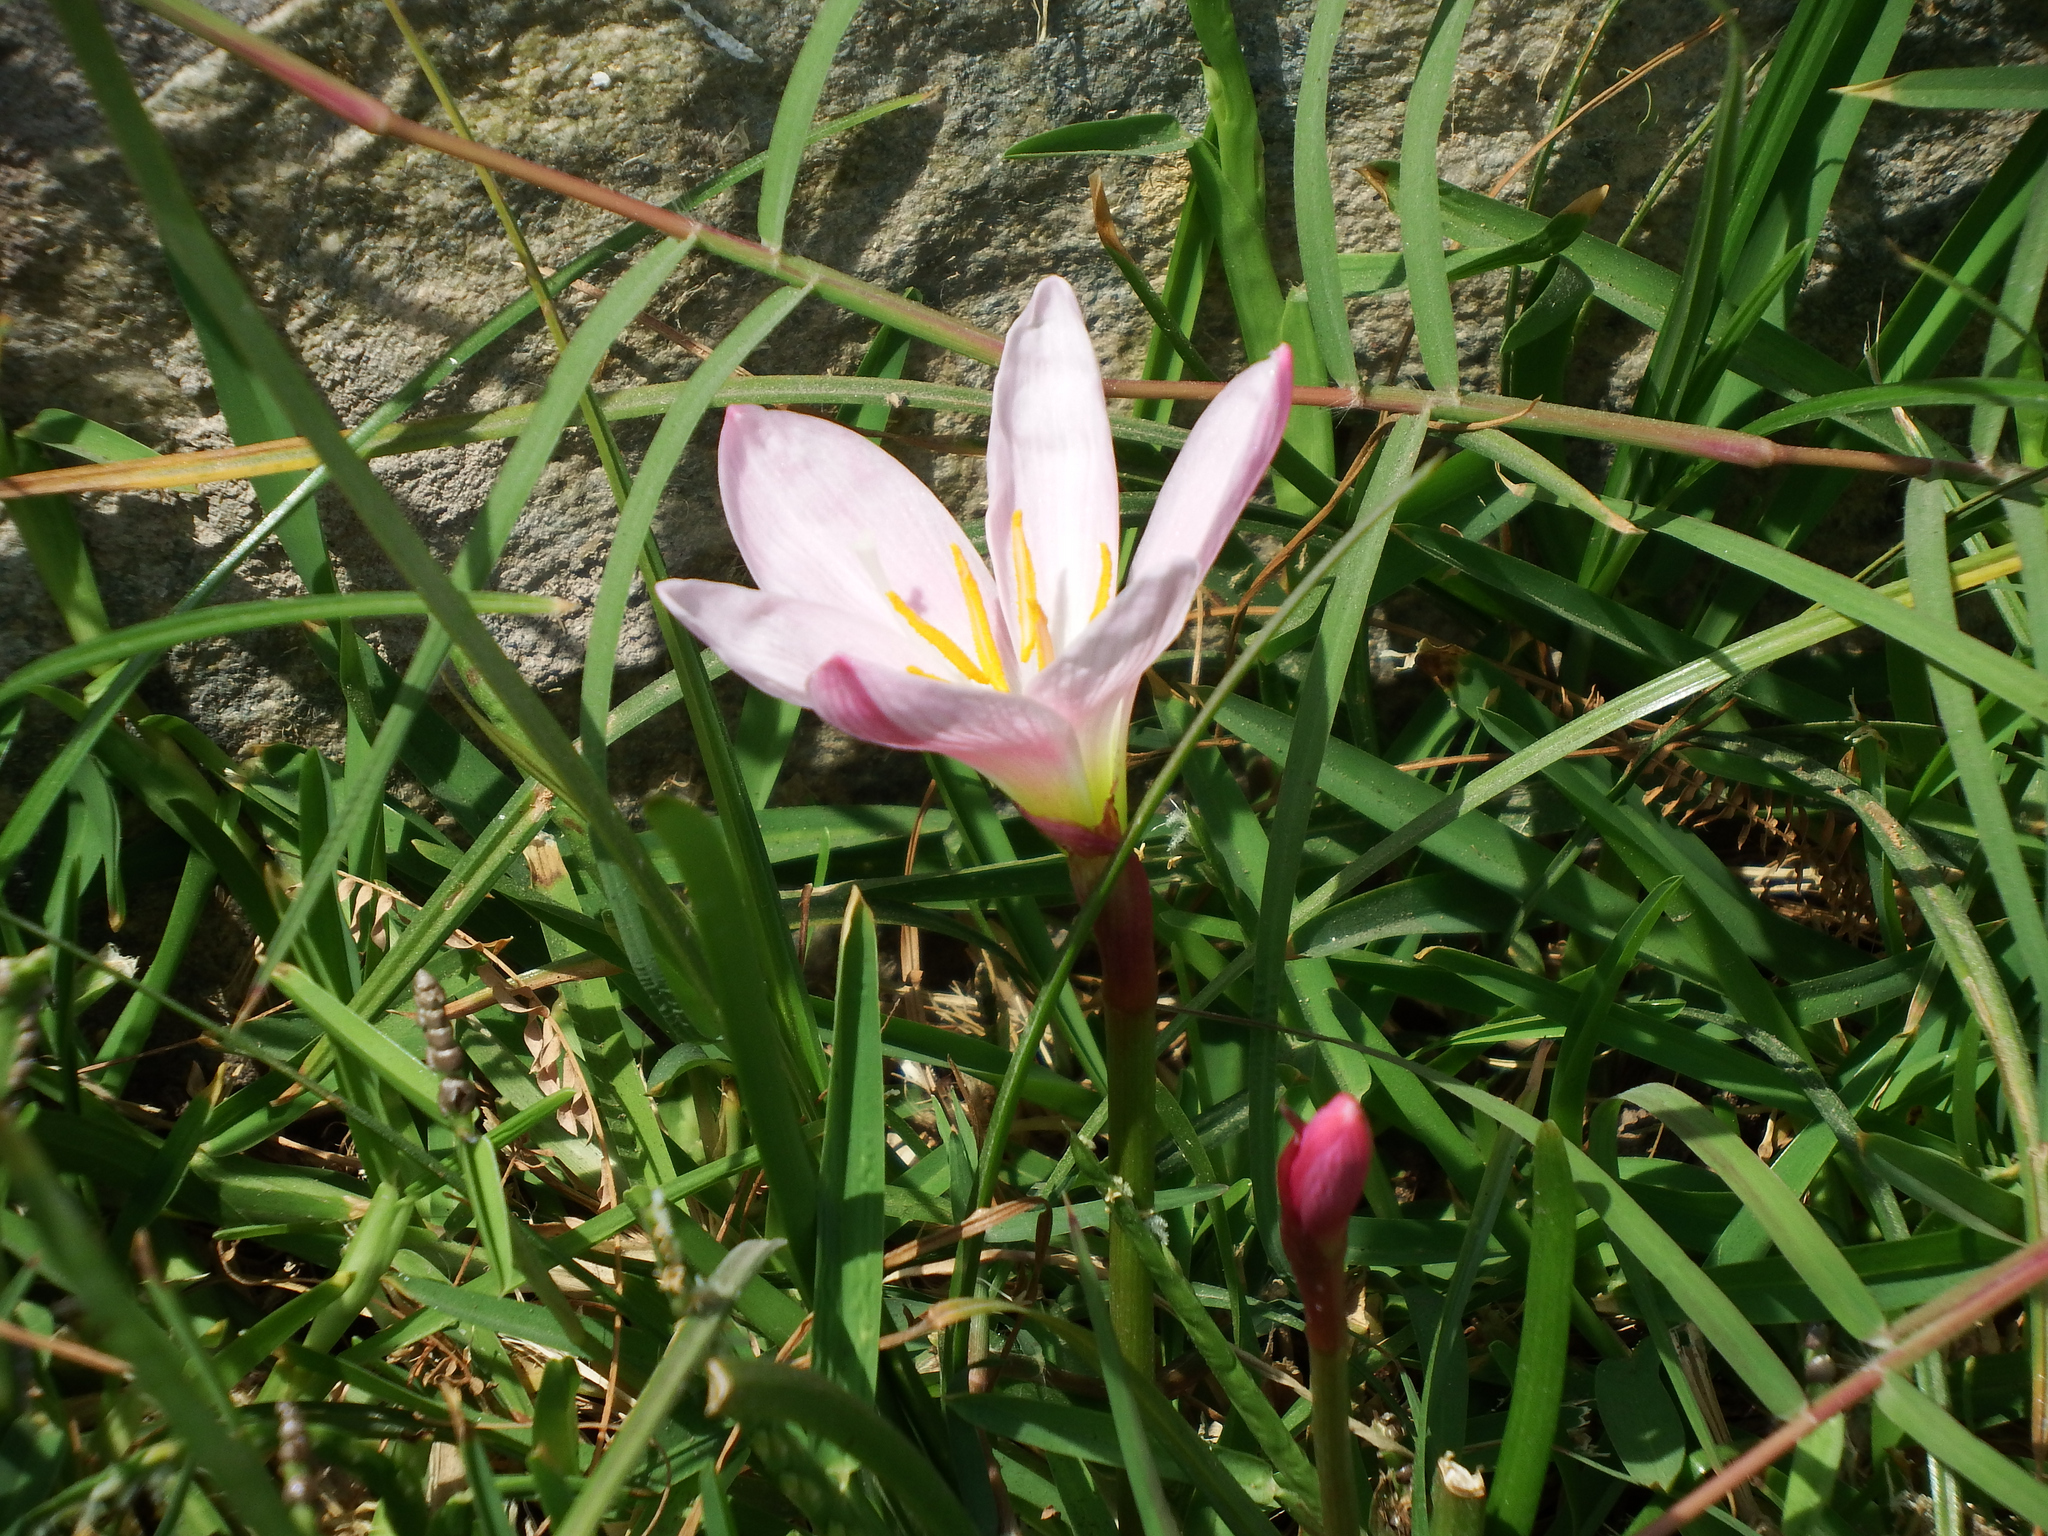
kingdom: Plantae
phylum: Tracheophyta
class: Liliopsida
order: Asparagales
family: Amaryllidaceae
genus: Zephyranthes
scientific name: Zephyranthes carinata
